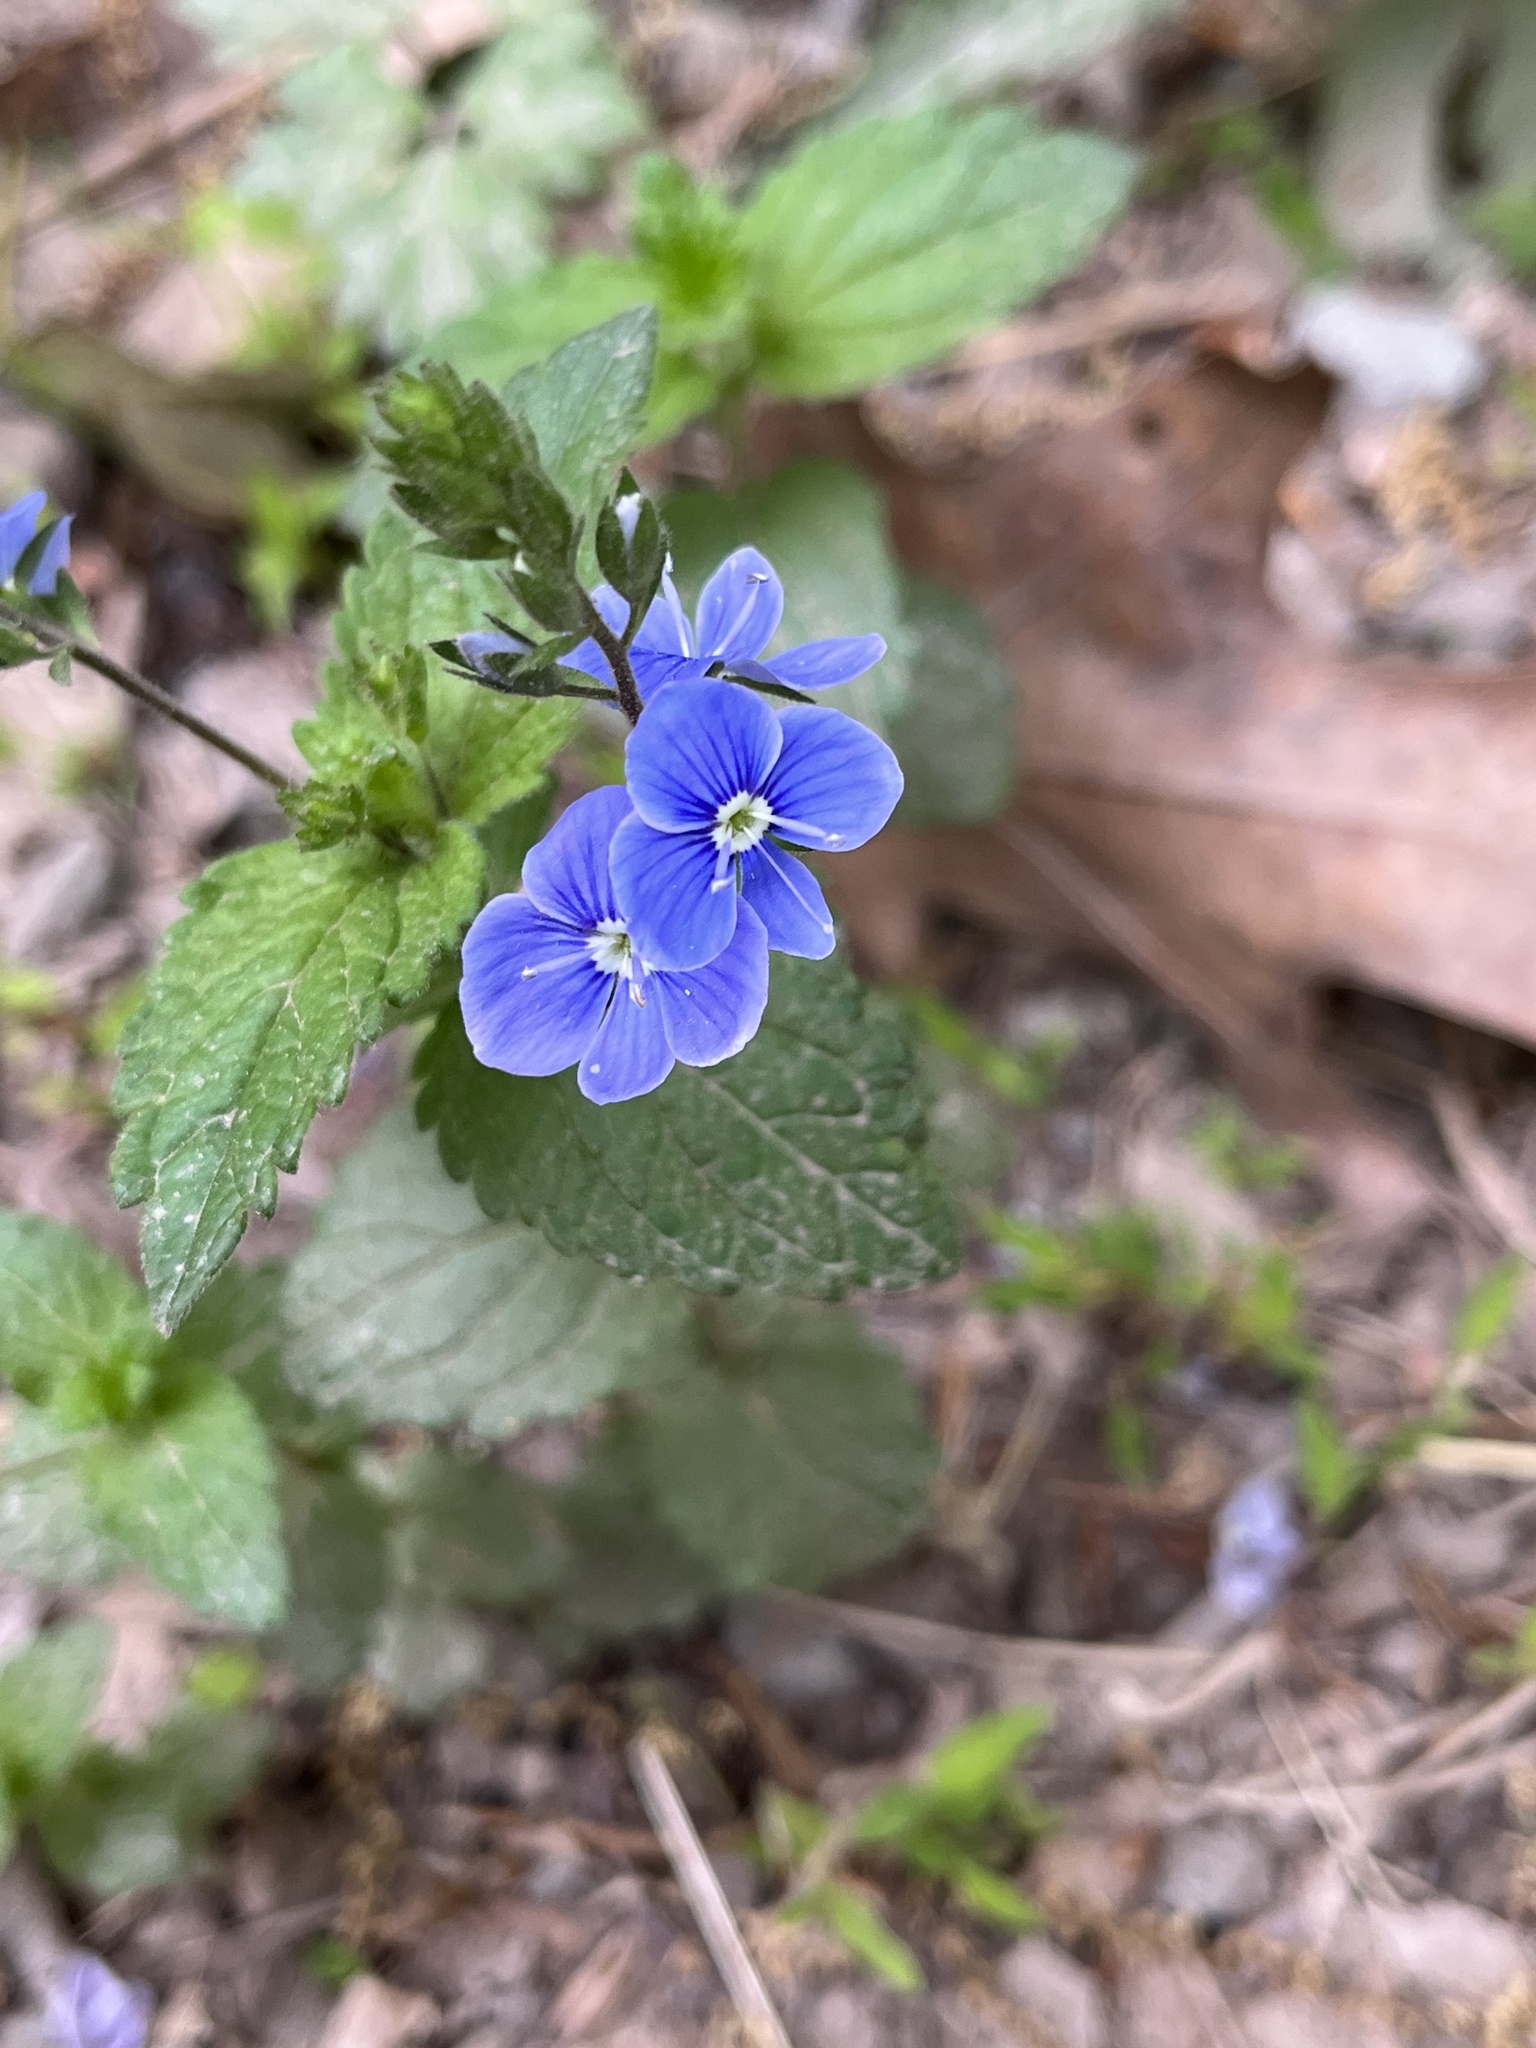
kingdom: Plantae
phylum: Tracheophyta
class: Magnoliopsida
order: Lamiales
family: Plantaginaceae
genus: Veronica
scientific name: Veronica chamaedrys
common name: Germander speedwell
